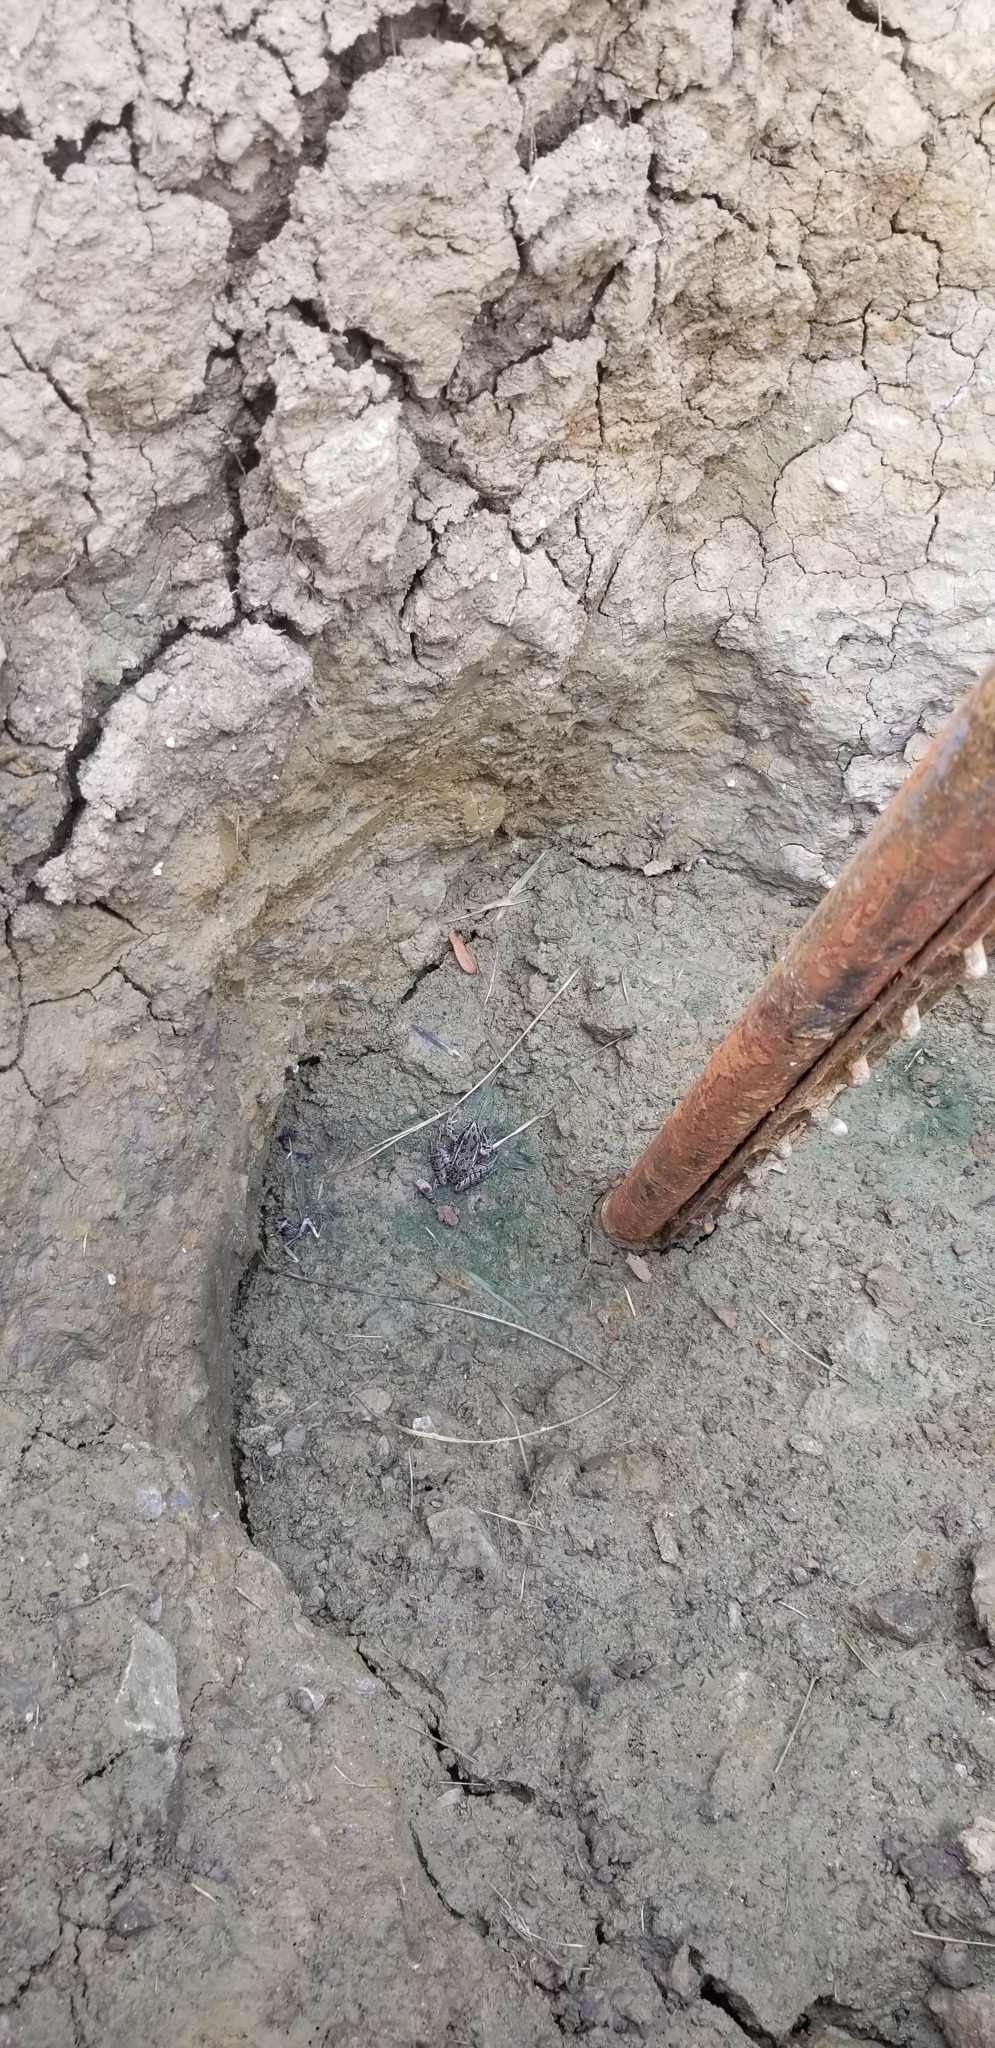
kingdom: Animalia
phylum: Chordata
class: Amphibia
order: Anura
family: Ranidae
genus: Lithobates
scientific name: Lithobates blairi
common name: Plains leopard frog
